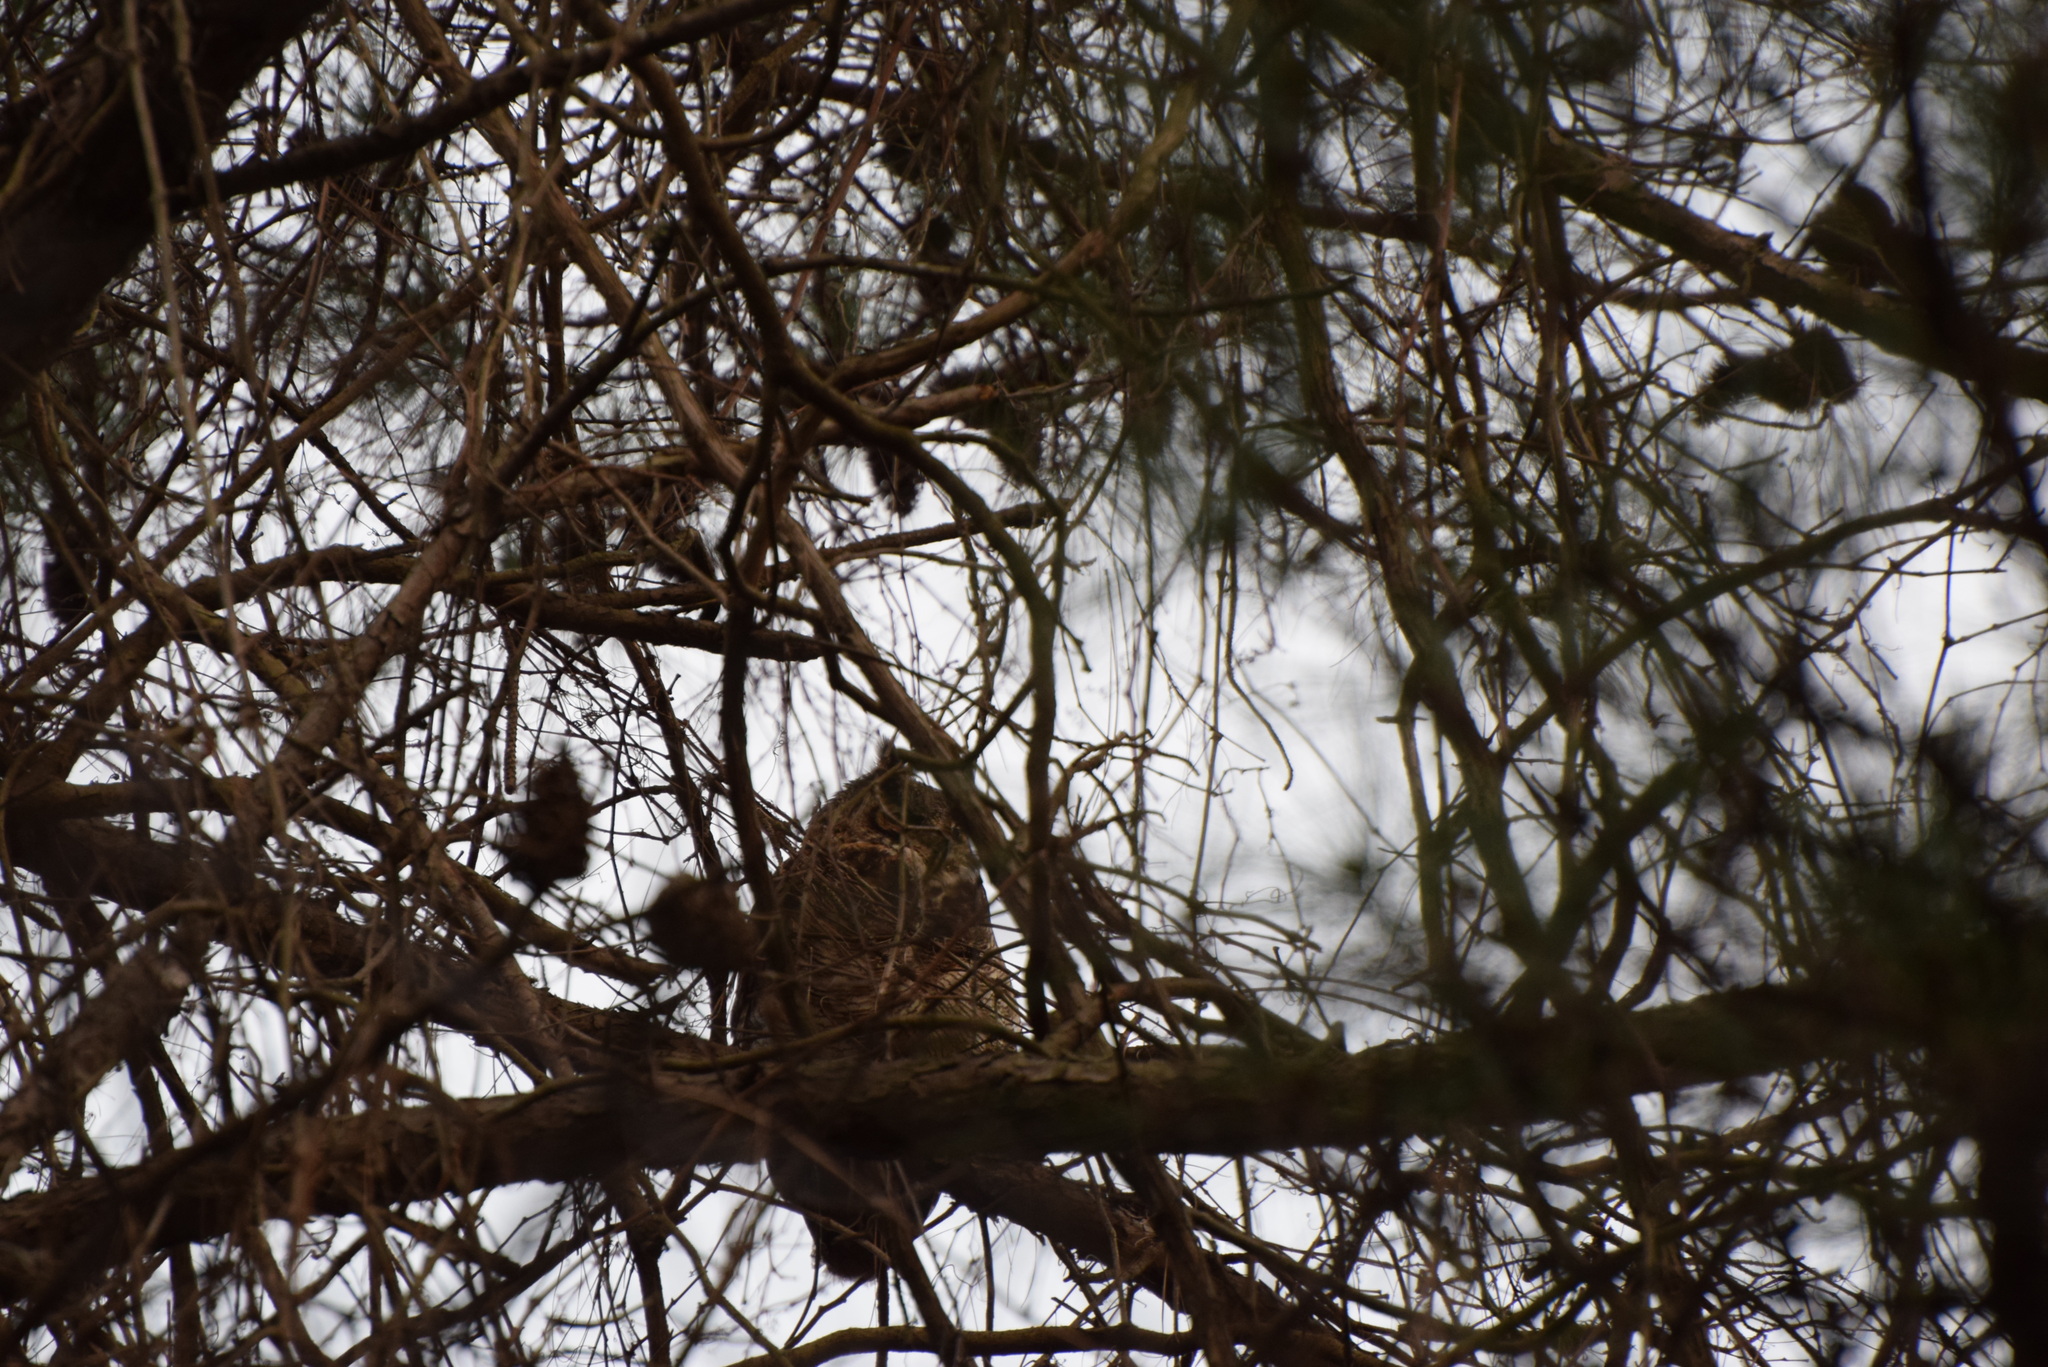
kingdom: Animalia
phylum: Chordata
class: Aves
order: Strigiformes
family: Strigidae
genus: Bubo
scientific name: Bubo virginianus
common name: Great horned owl
